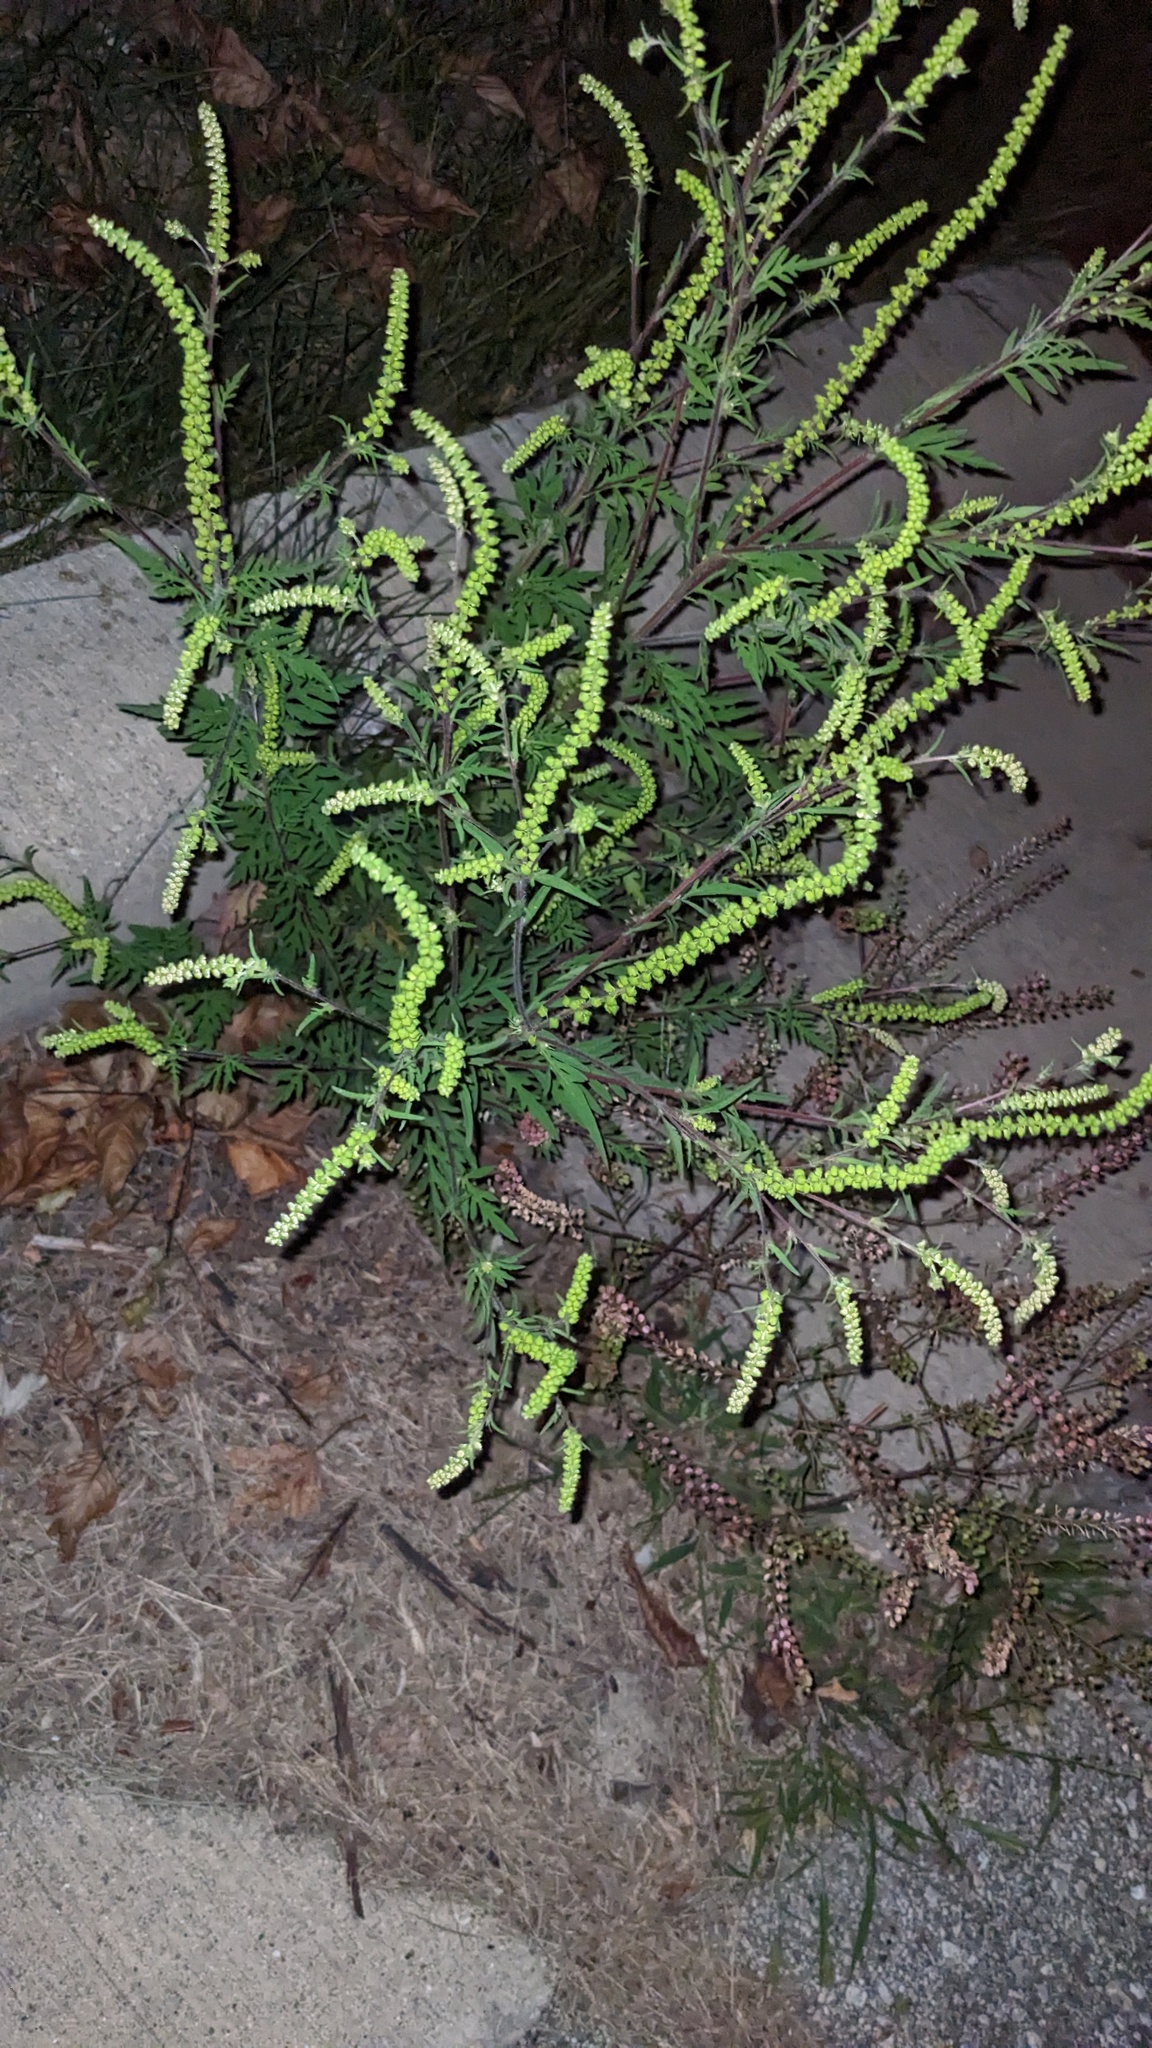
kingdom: Plantae
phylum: Tracheophyta
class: Magnoliopsida
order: Asterales
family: Asteraceae
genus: Ambrosia
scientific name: Ambrosia artemisiifolia
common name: Annual ragweed
